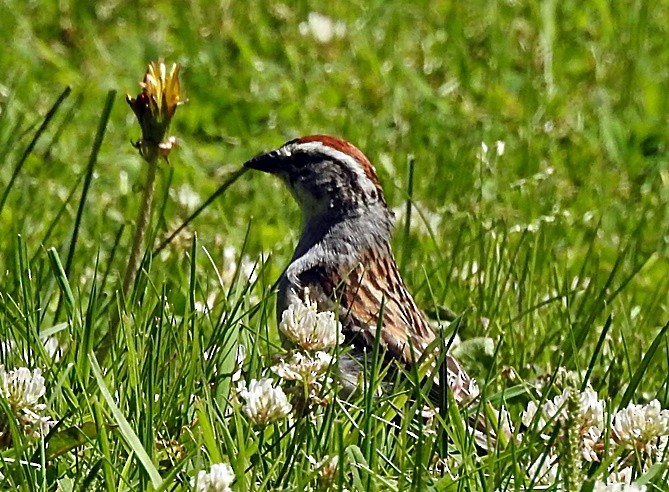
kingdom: Animalia
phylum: Chordata
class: Aves
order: Passeriformes
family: Passerellidae
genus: Spizella
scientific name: Spizella passerina
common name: Chipping sparrow
